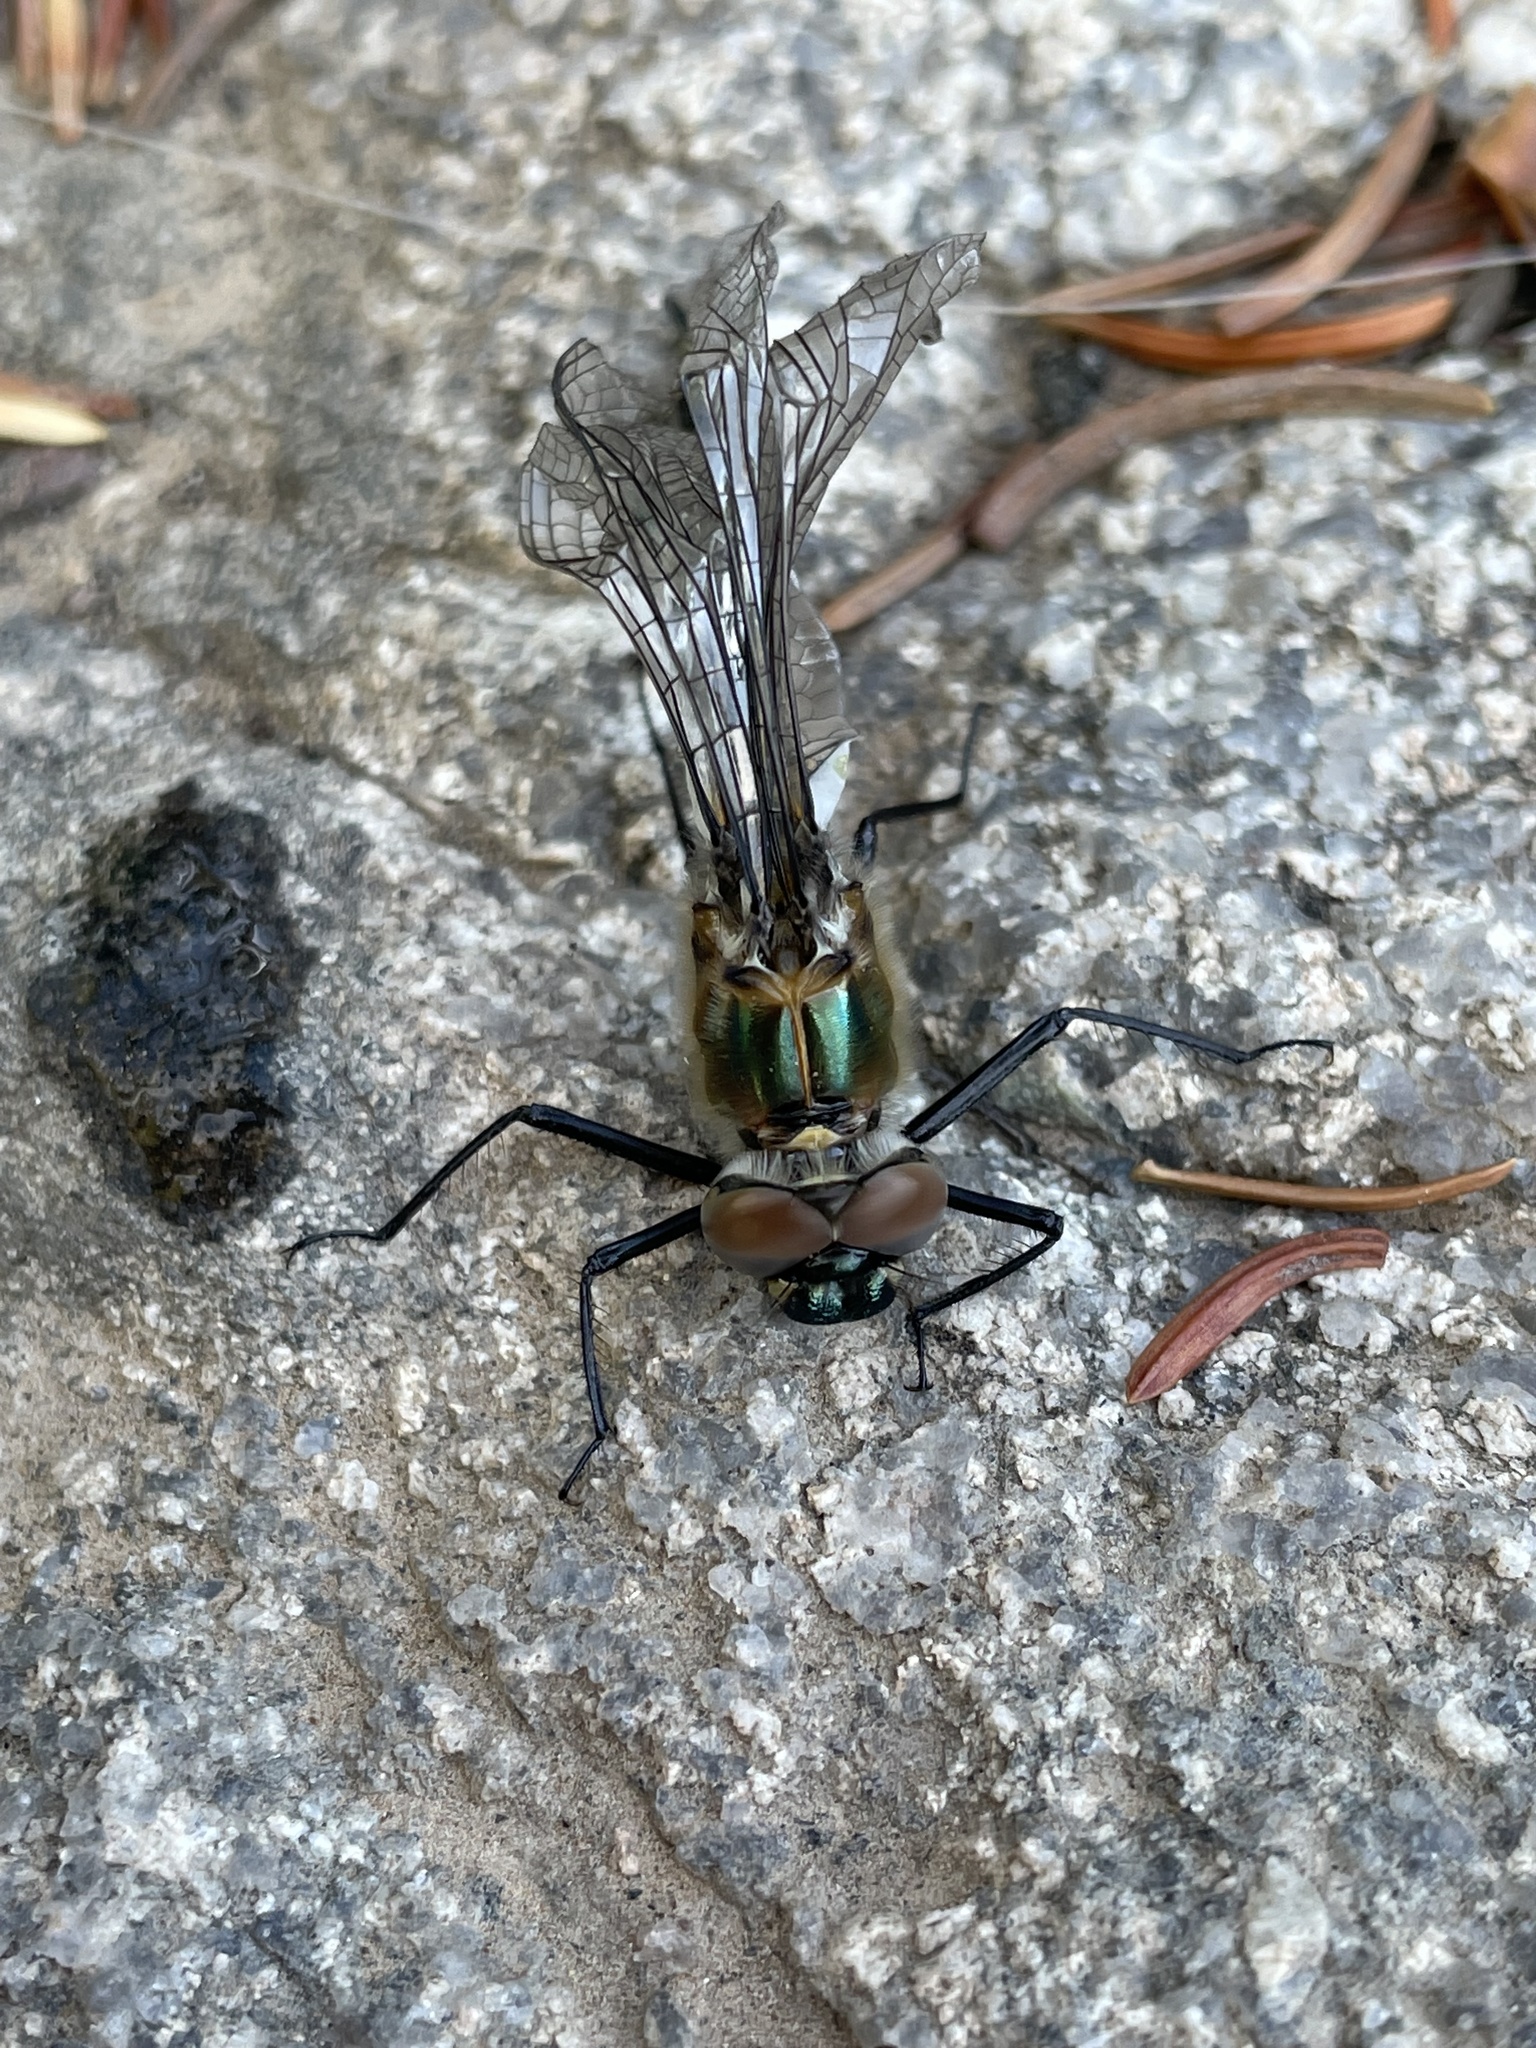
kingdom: Animalia
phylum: Arthropoda
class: Insecta
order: Odonata
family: Corduliidae
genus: Cordulia
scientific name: Cordulia shurtleffii
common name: American emerald
